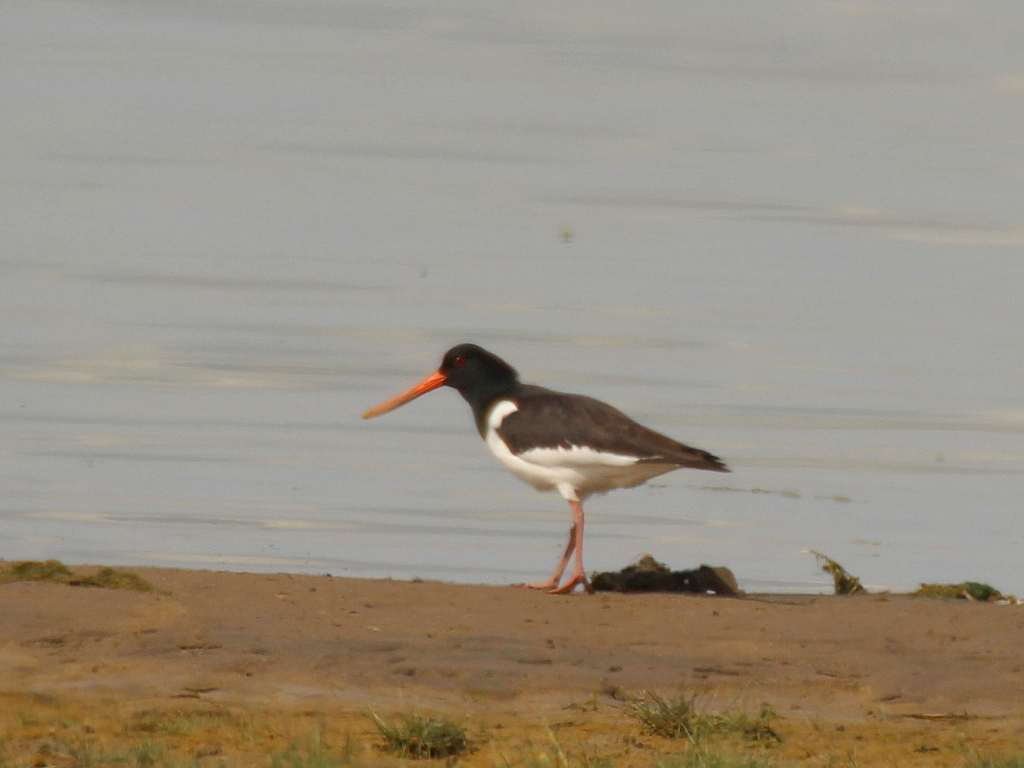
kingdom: Animalia
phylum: Chordata
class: Aves
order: Charadriiformes
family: Haematopodidae
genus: Haematopus
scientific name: Haematopus ostralegus
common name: Eurasian oystercatcher
